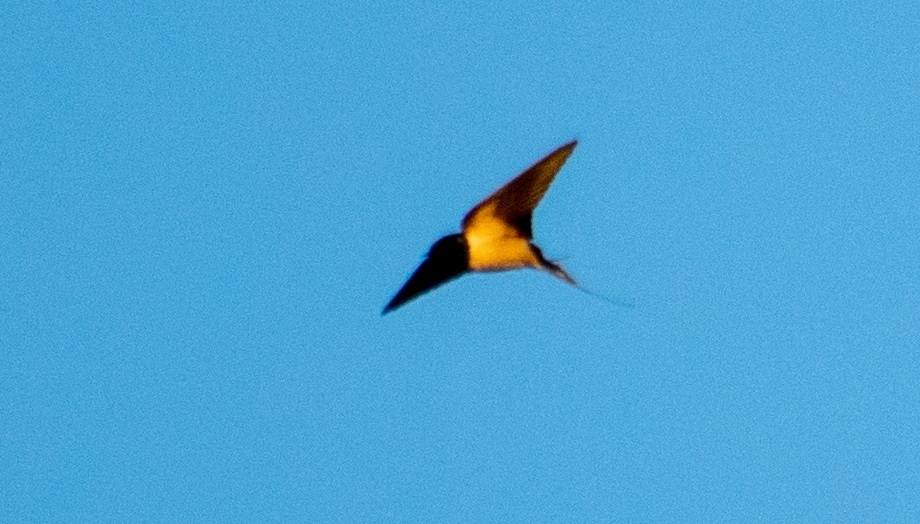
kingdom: Animalia
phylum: Chordata
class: Aves
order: Passeriformes
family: Hirundinidae
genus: Hirundo
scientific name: Hirundo rustica
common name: Barn swallow
